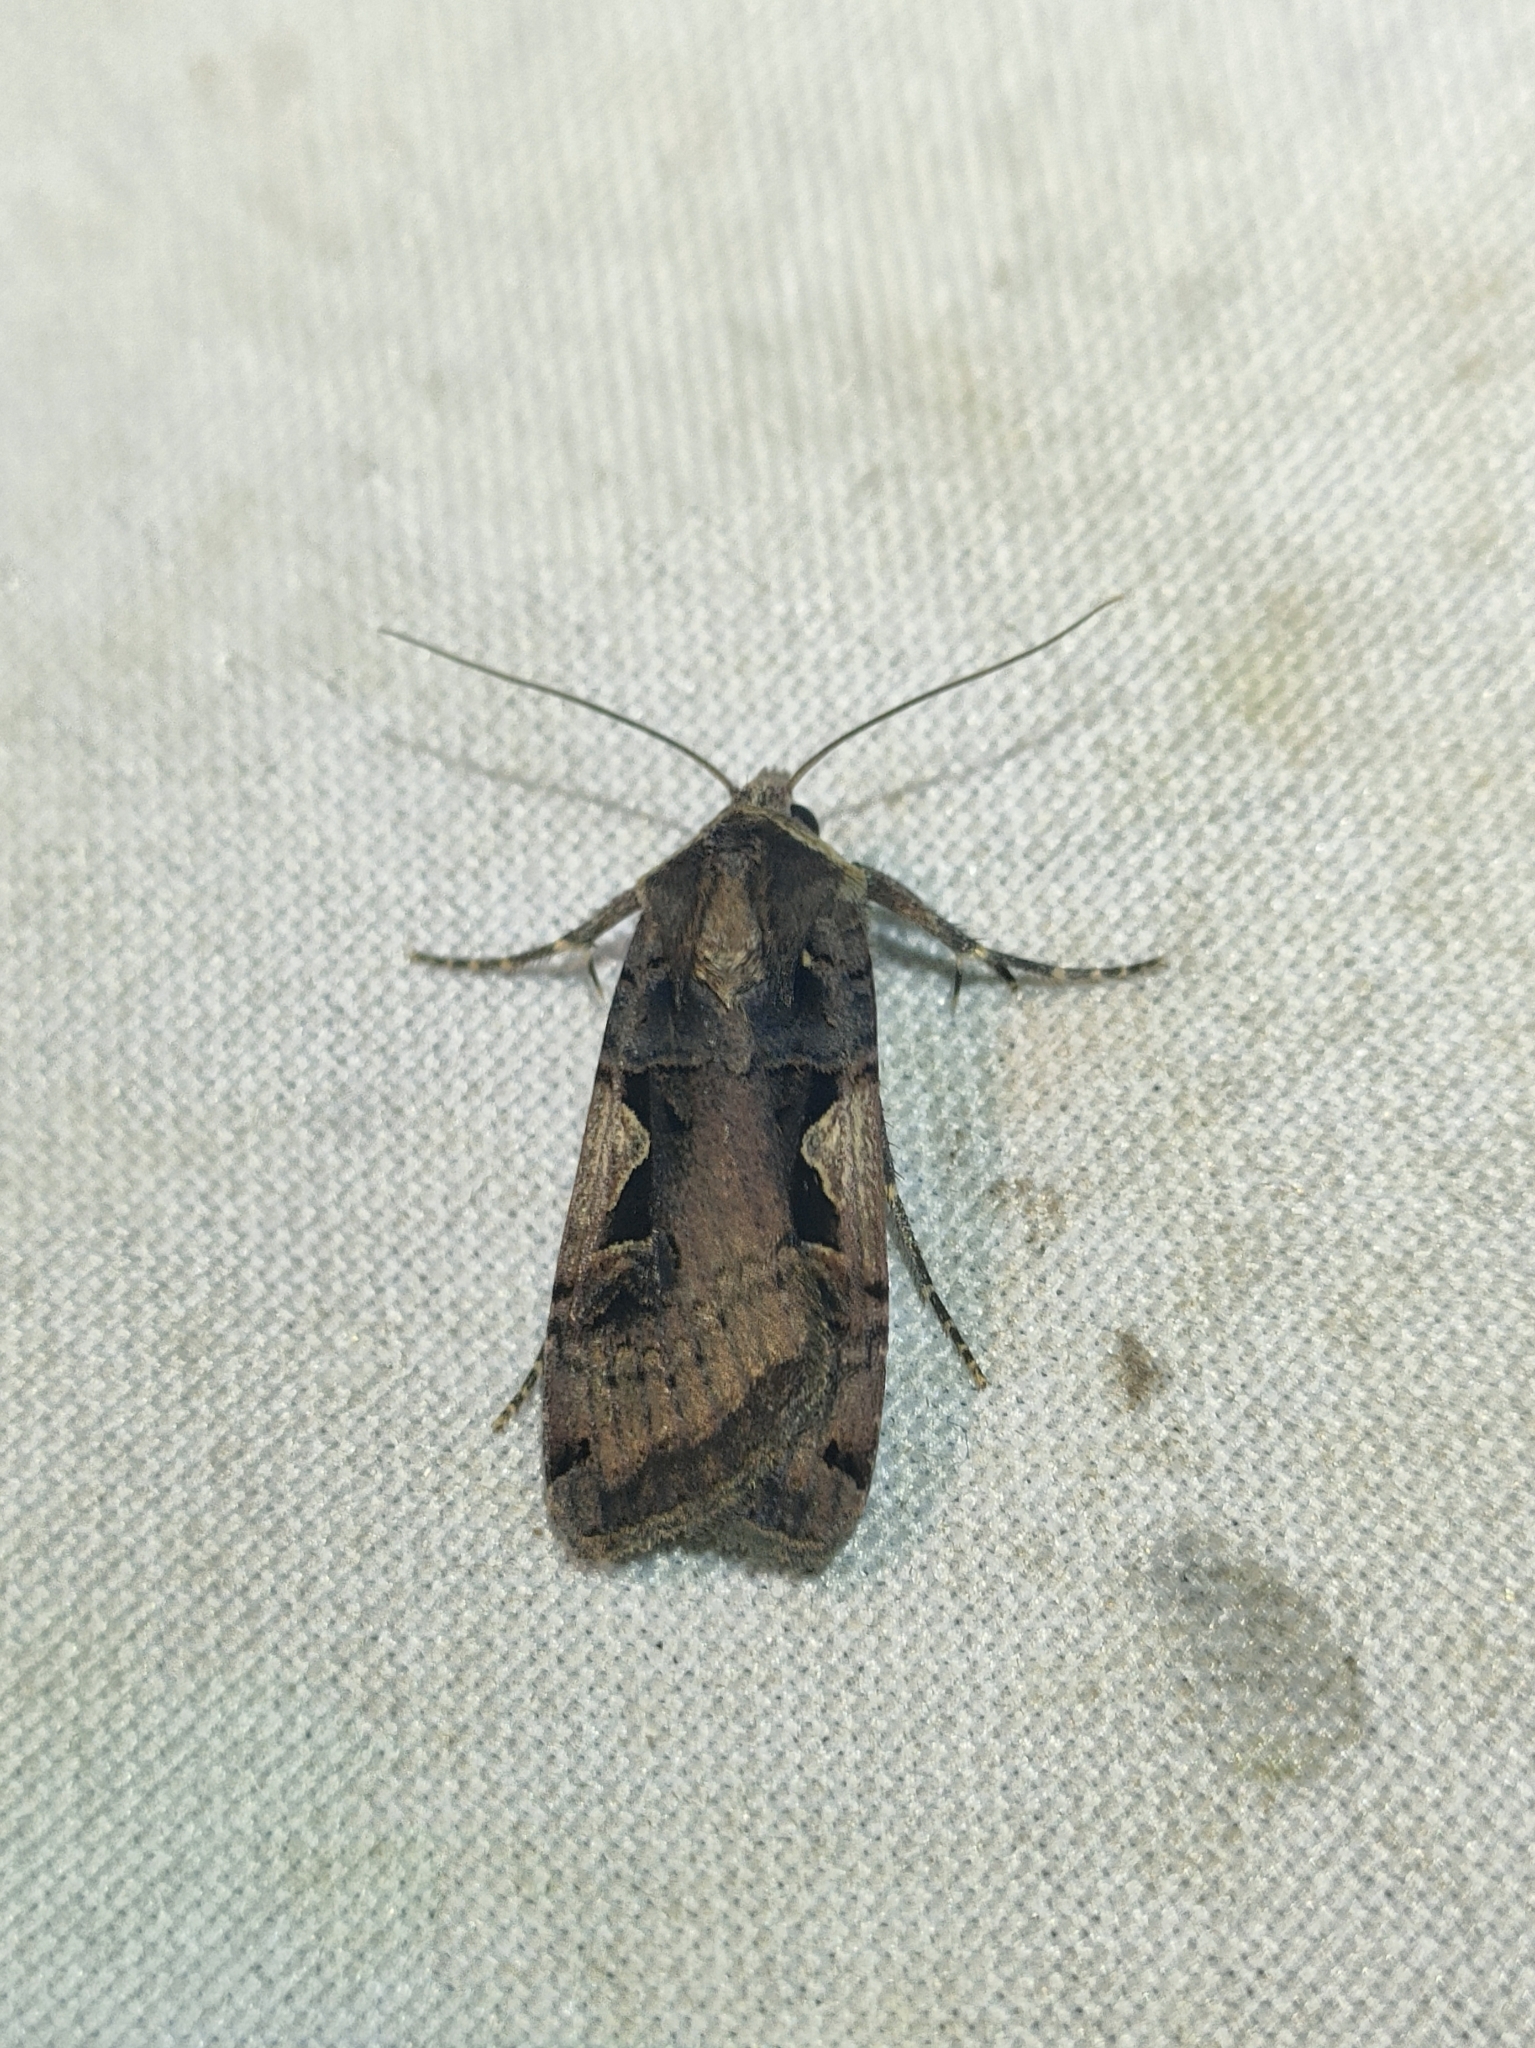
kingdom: Animalia
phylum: Arthropoda
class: Insecta
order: Lepidoptera
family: Noctuidae
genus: Xestia
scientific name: Xestia c-nigrum
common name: Setaceous hebrew character
